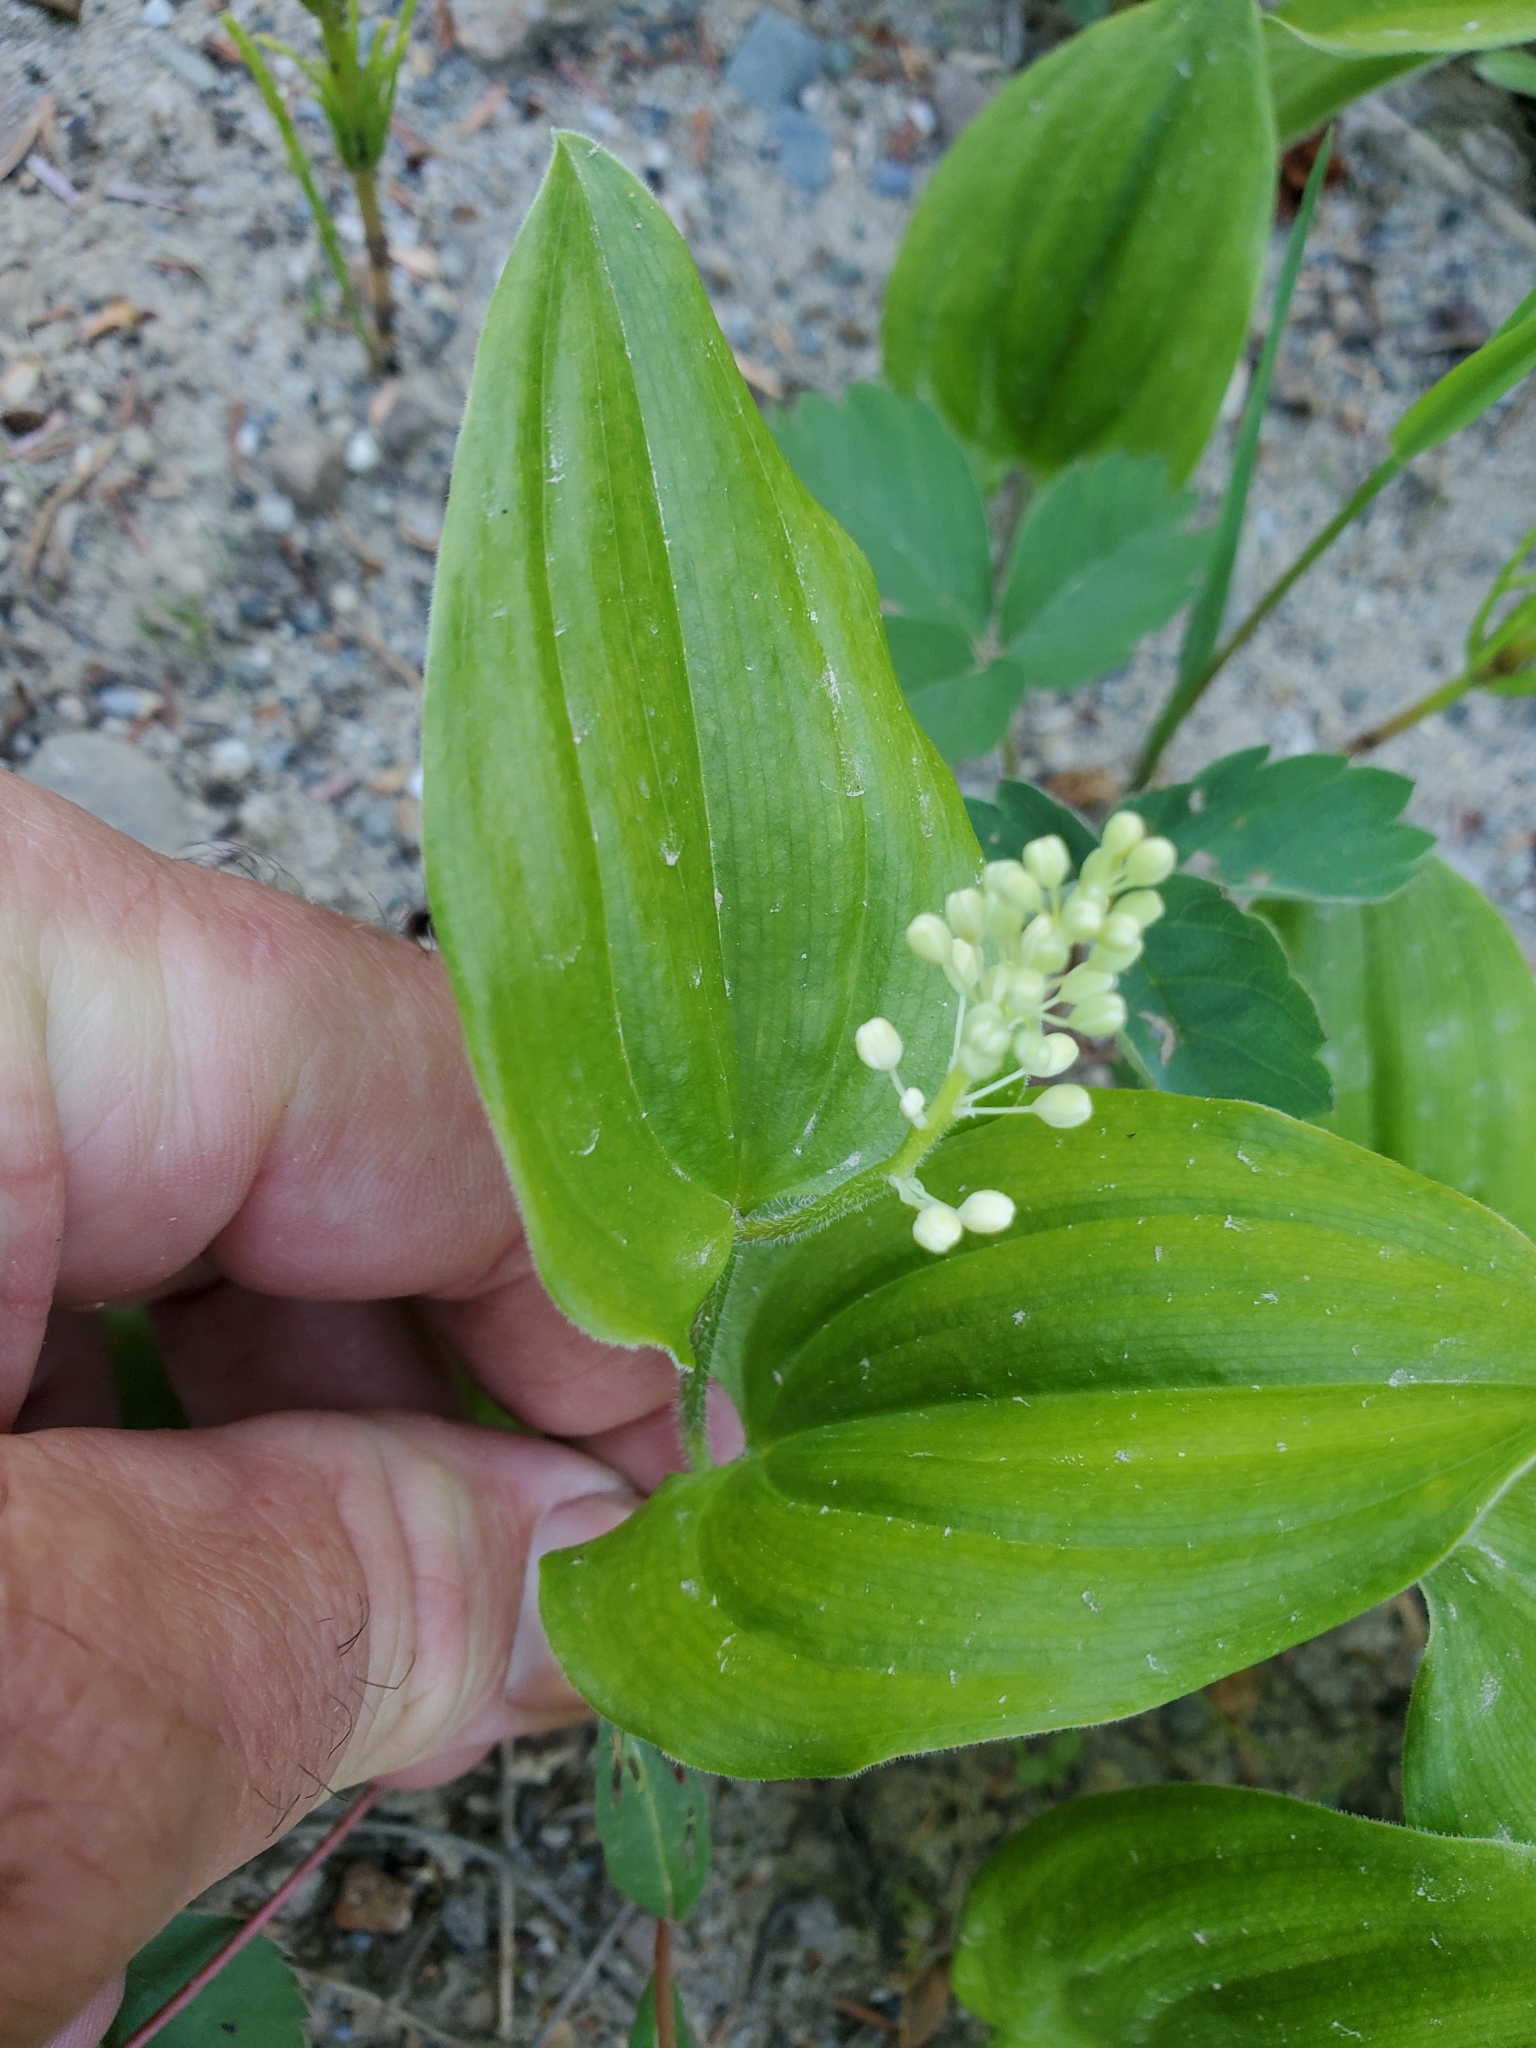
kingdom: Plantae
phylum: Tracheophyta
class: Liliopsida
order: Asparagales
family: Asparagaceae
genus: Maianthemum
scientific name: Maianthemum canadense
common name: False lily-of-the-valley
